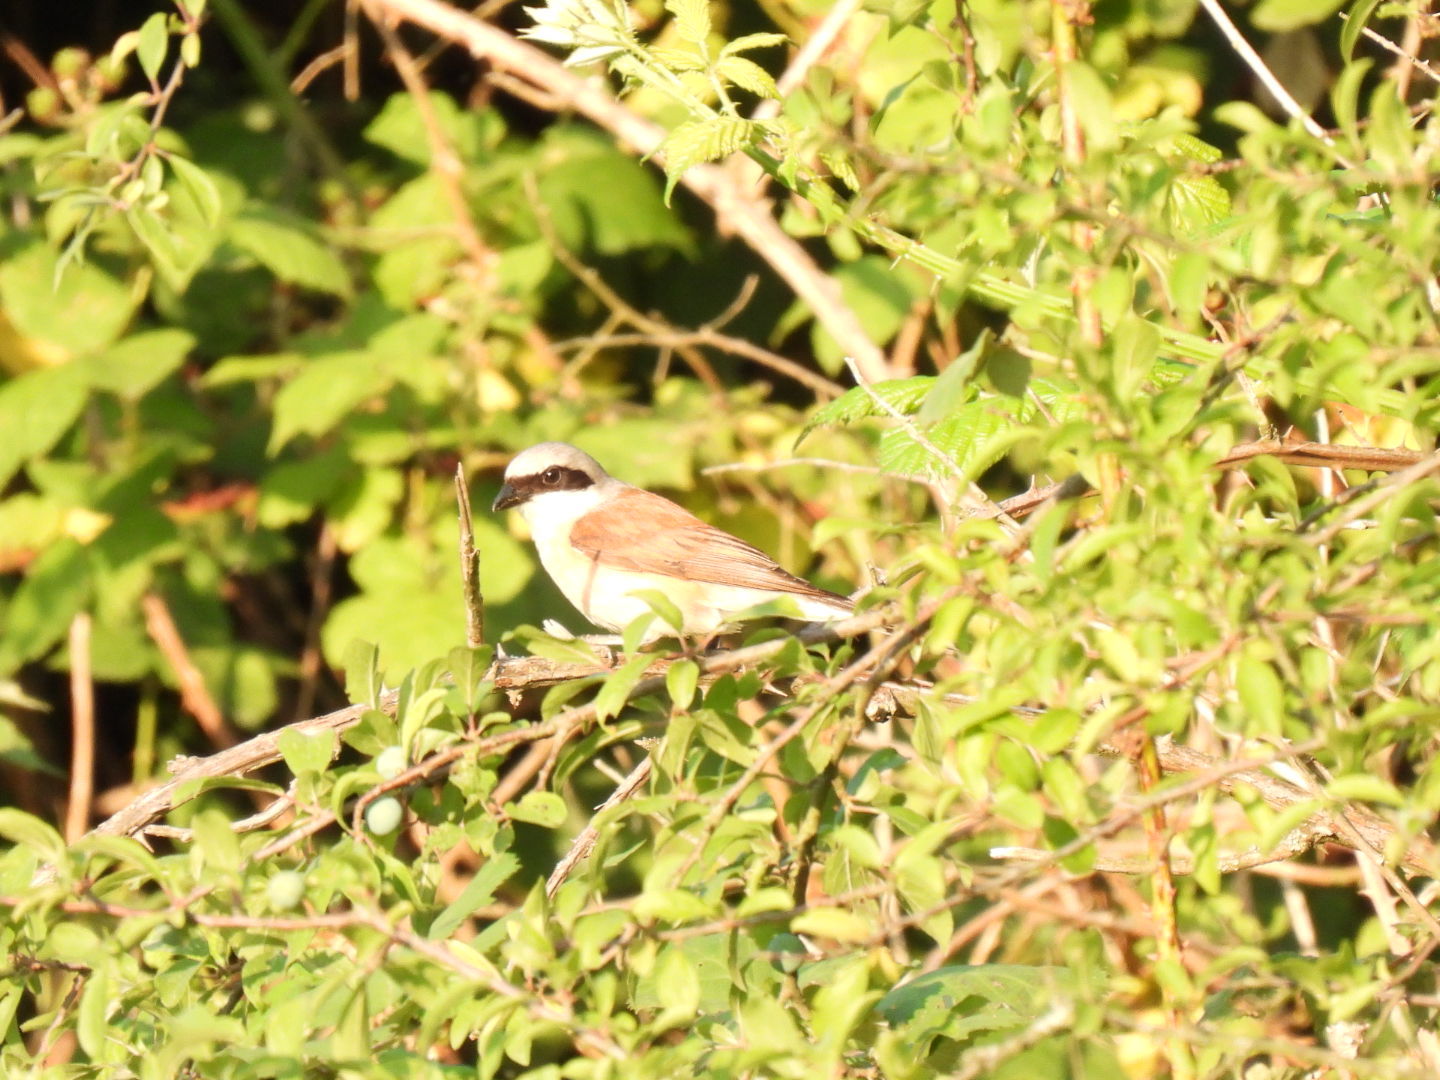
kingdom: Animalia
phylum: Chordata
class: Aves
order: Passeriformes
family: Laniidae
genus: Lanius
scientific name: Lanius collurio
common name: Red-backed shrike
